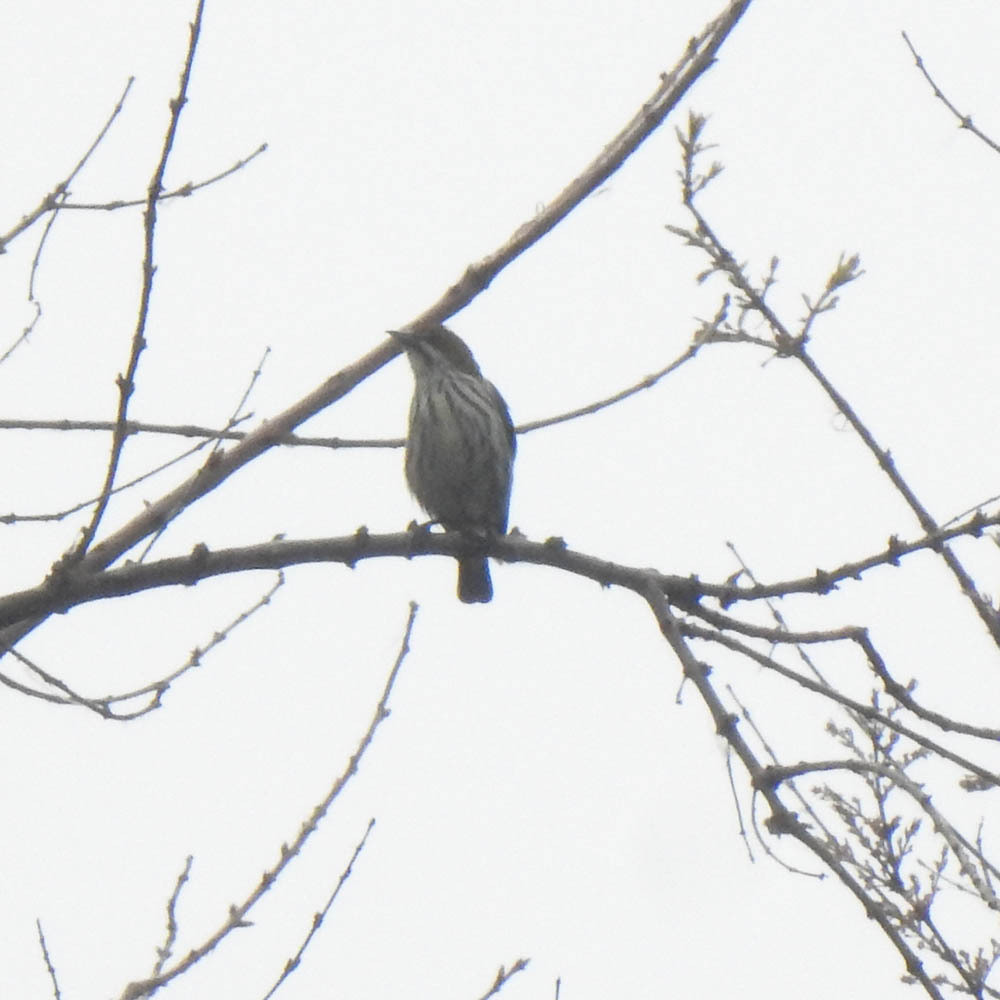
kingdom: Animalia
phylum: Chordata
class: Aves
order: Passeriformes
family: Dicaeidae
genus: Dicaeum
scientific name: Dicaeum chrysorrheum
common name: Yellow-vented flowerpecker
